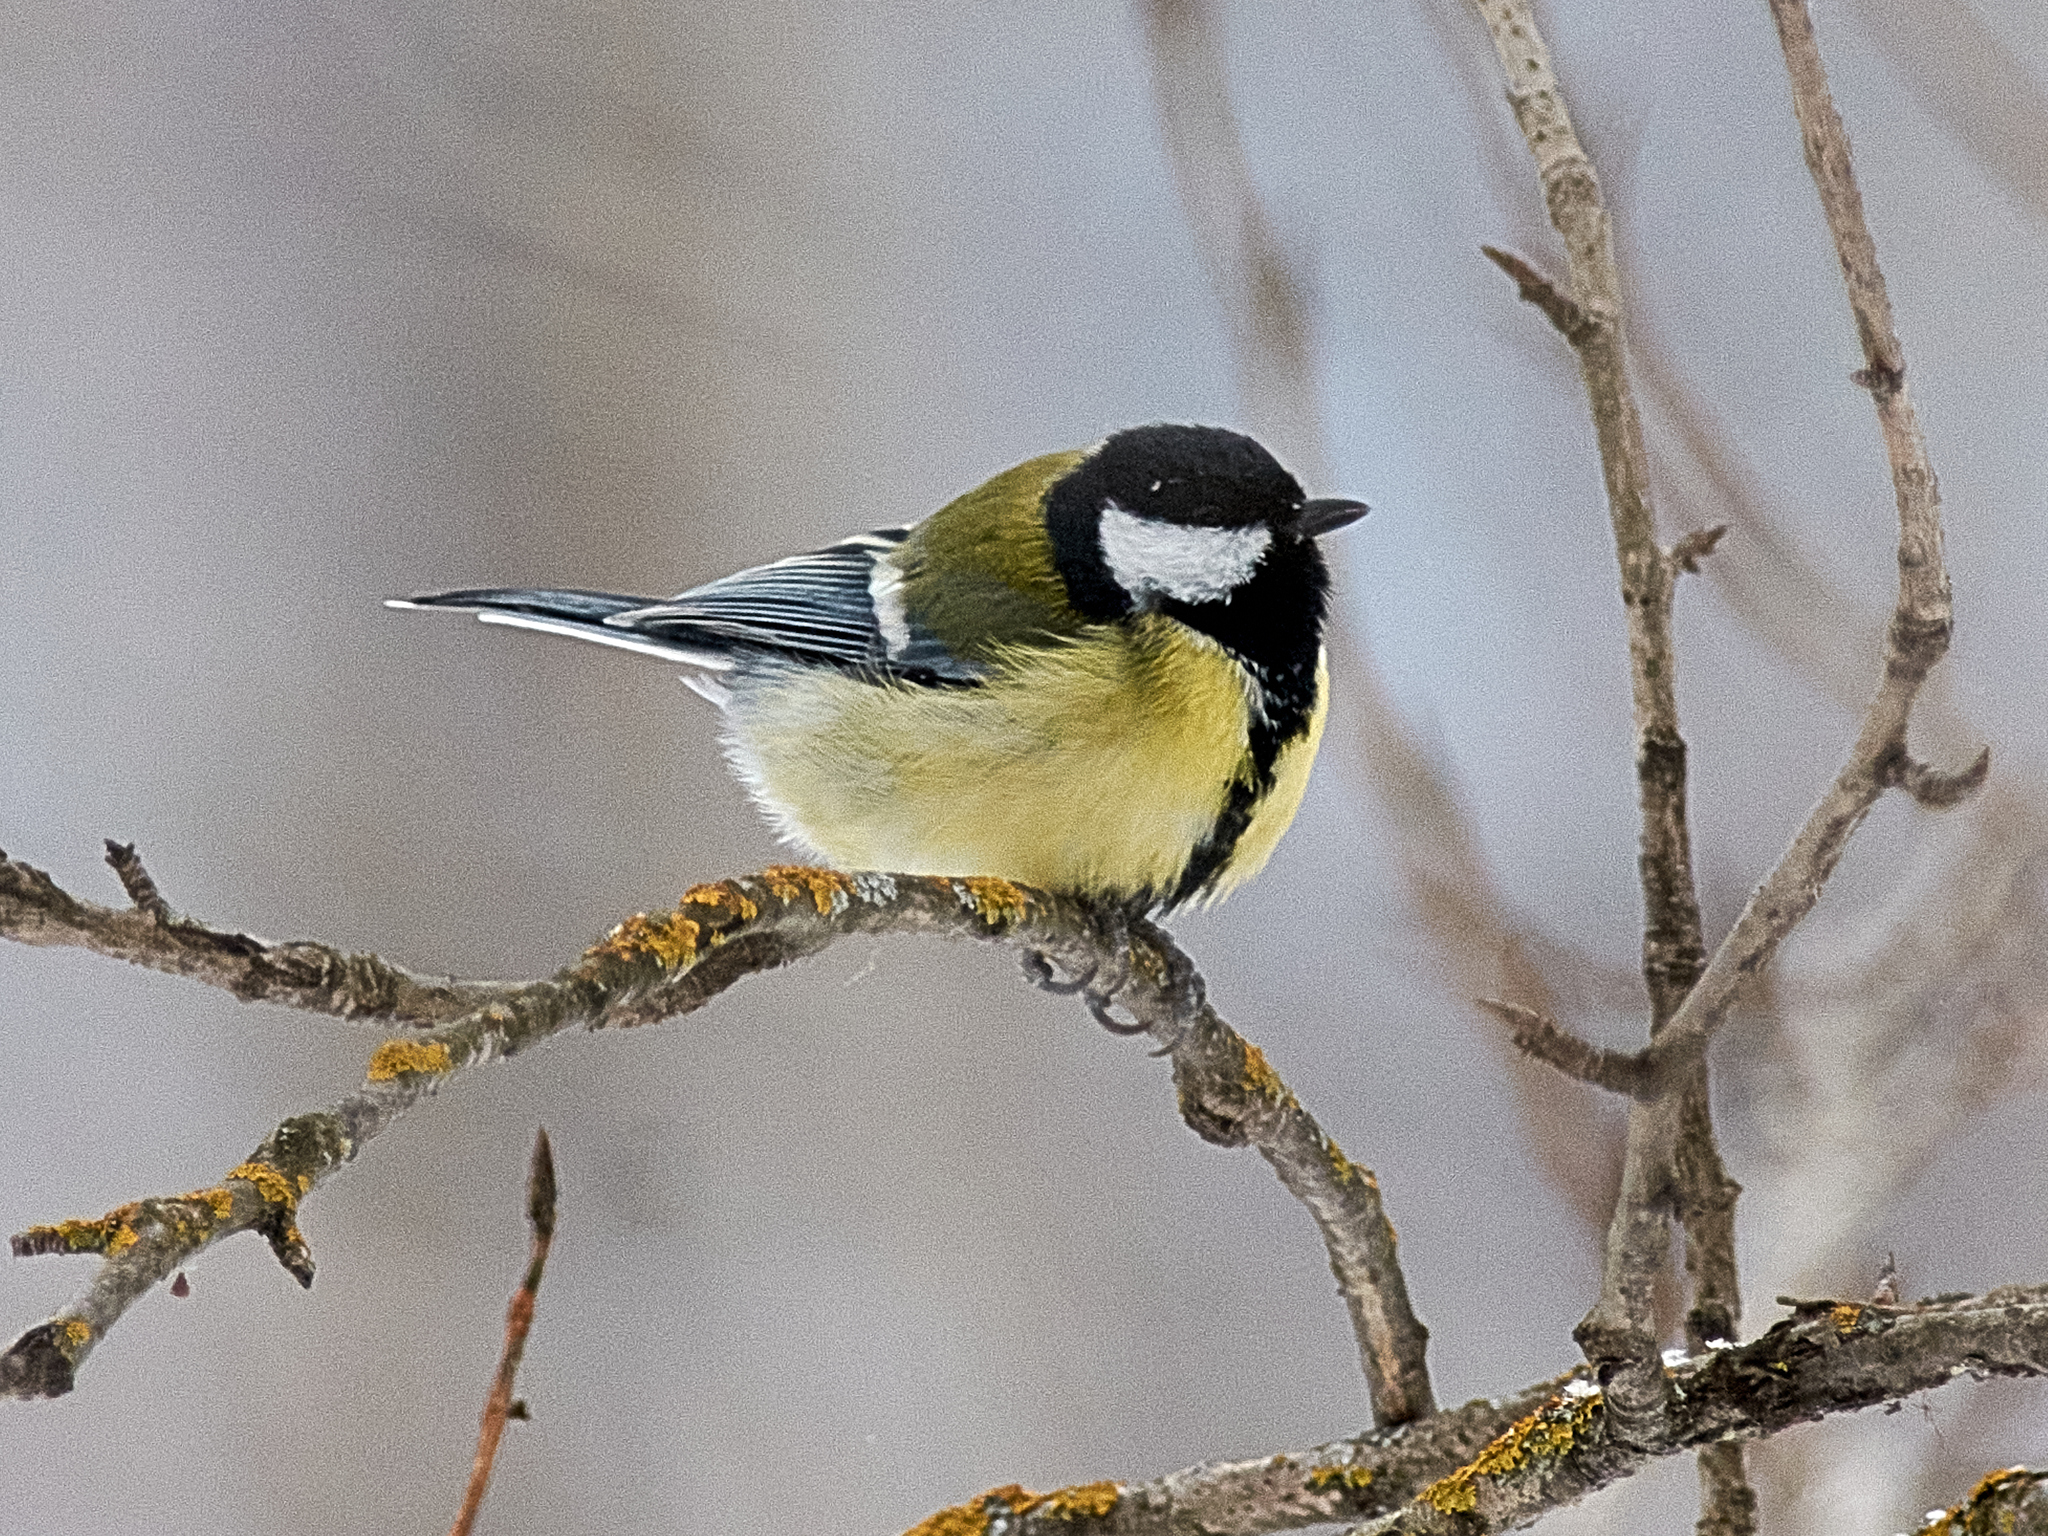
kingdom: Animalia
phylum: Chordata
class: Aves
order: Passeriformes
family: Paridae
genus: Parus
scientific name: Parus major
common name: Great tit
